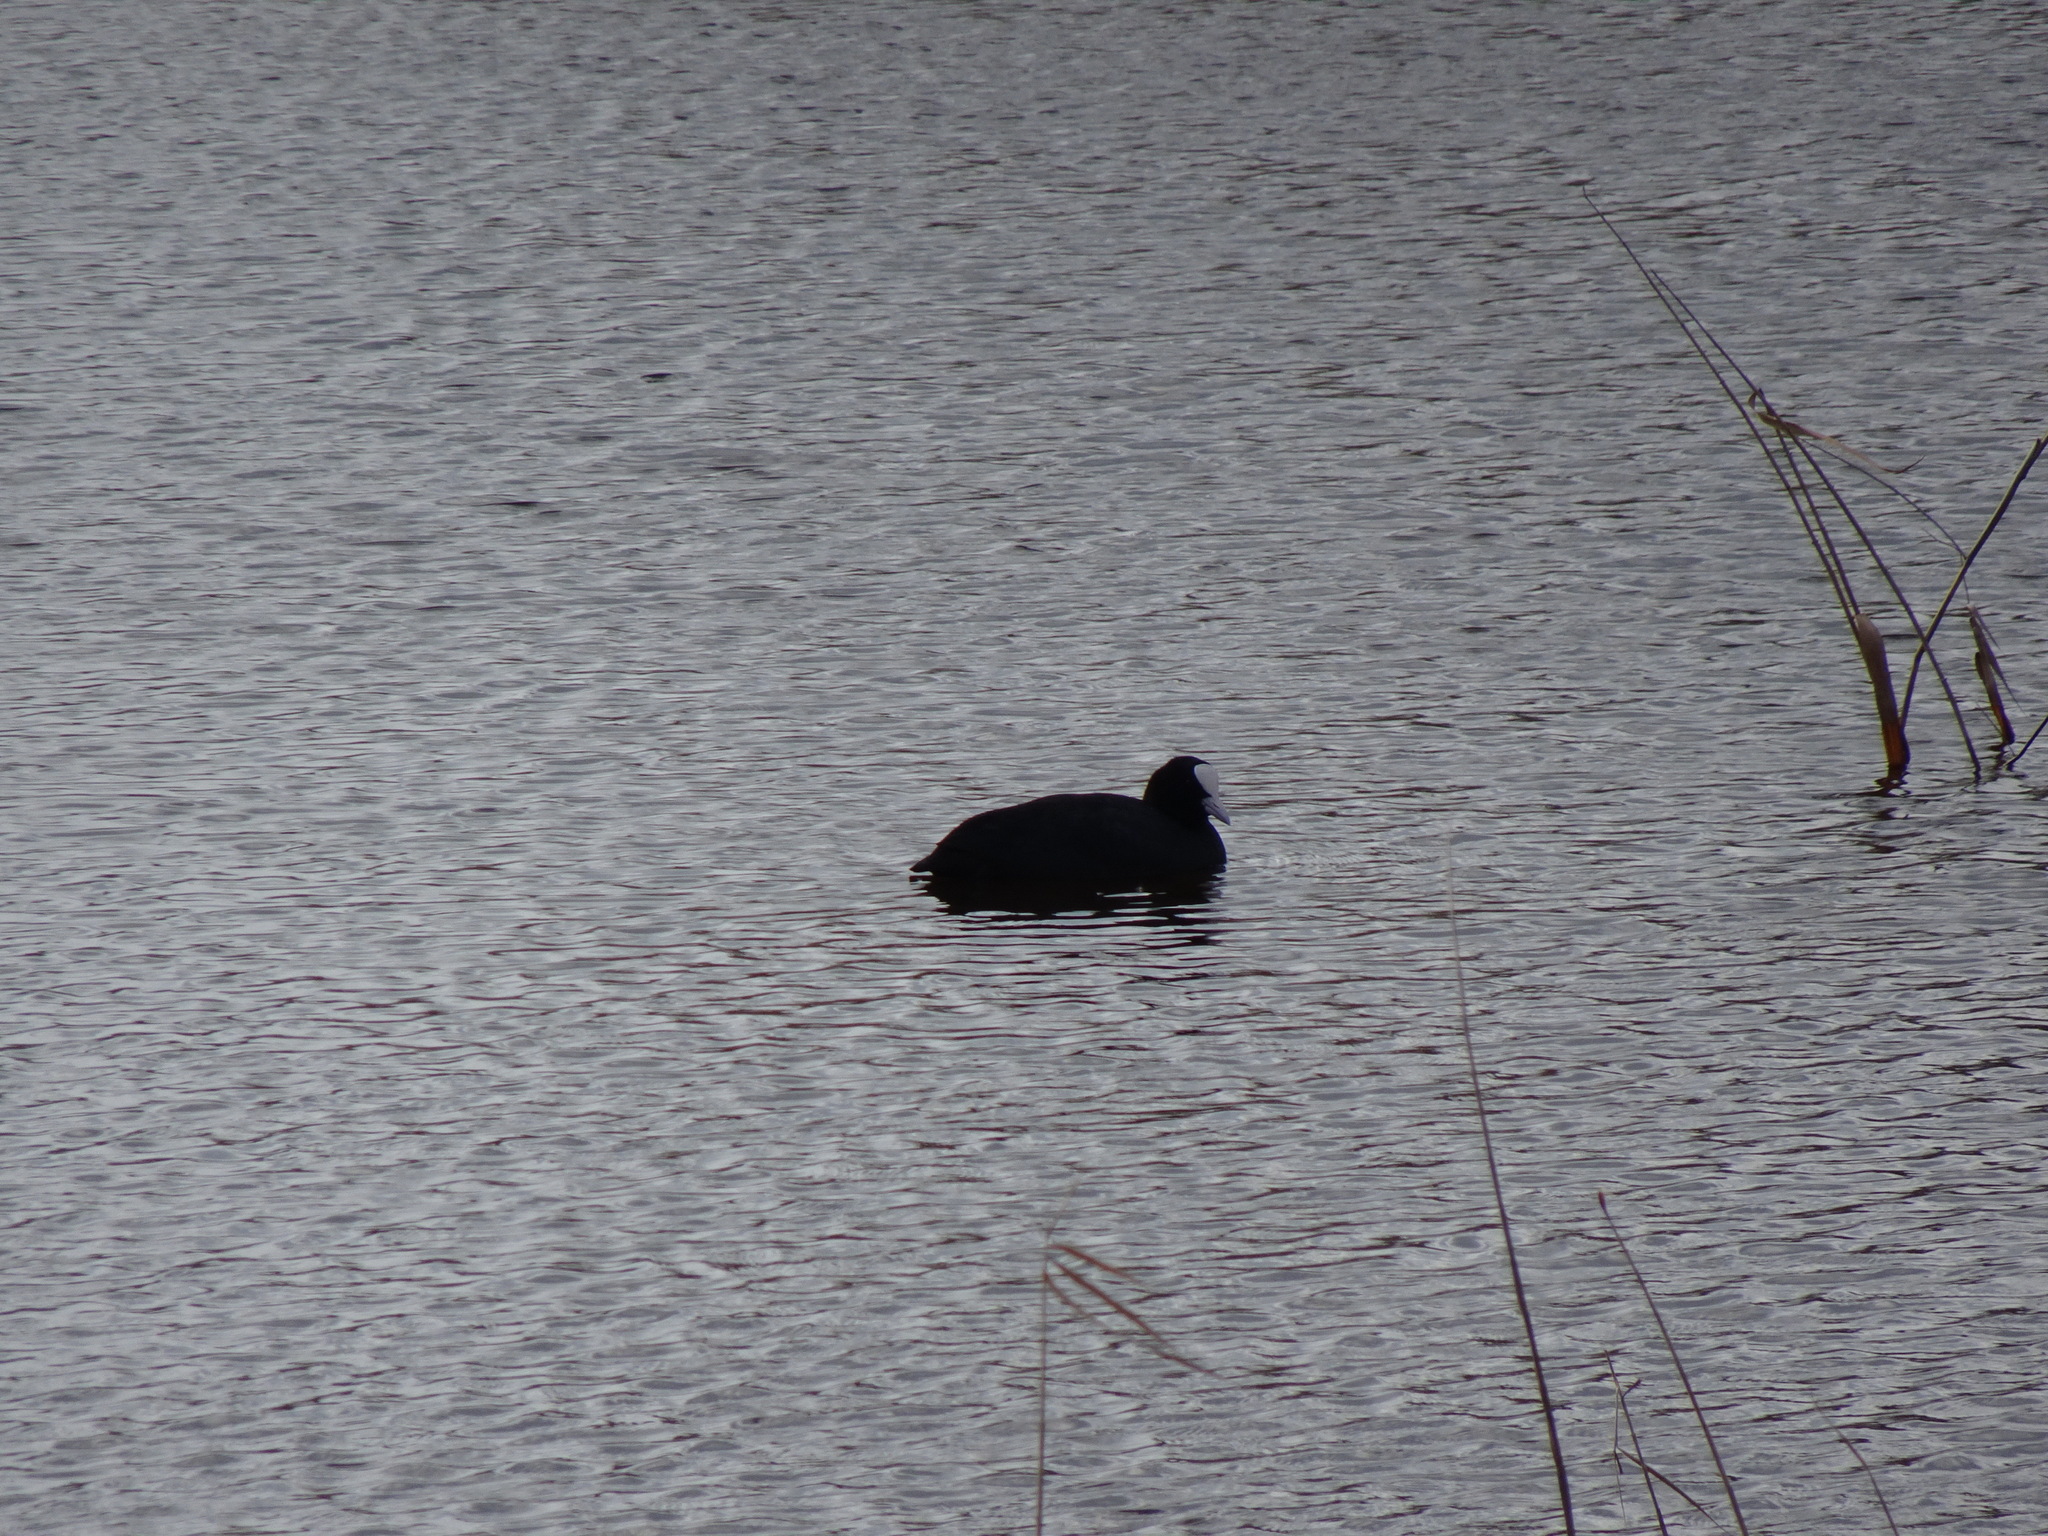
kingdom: Animalia
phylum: Chordata
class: Aves
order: Gruiformes
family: Rallidae
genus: Fulica
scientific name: Fulica atra
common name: Eurasian coot
